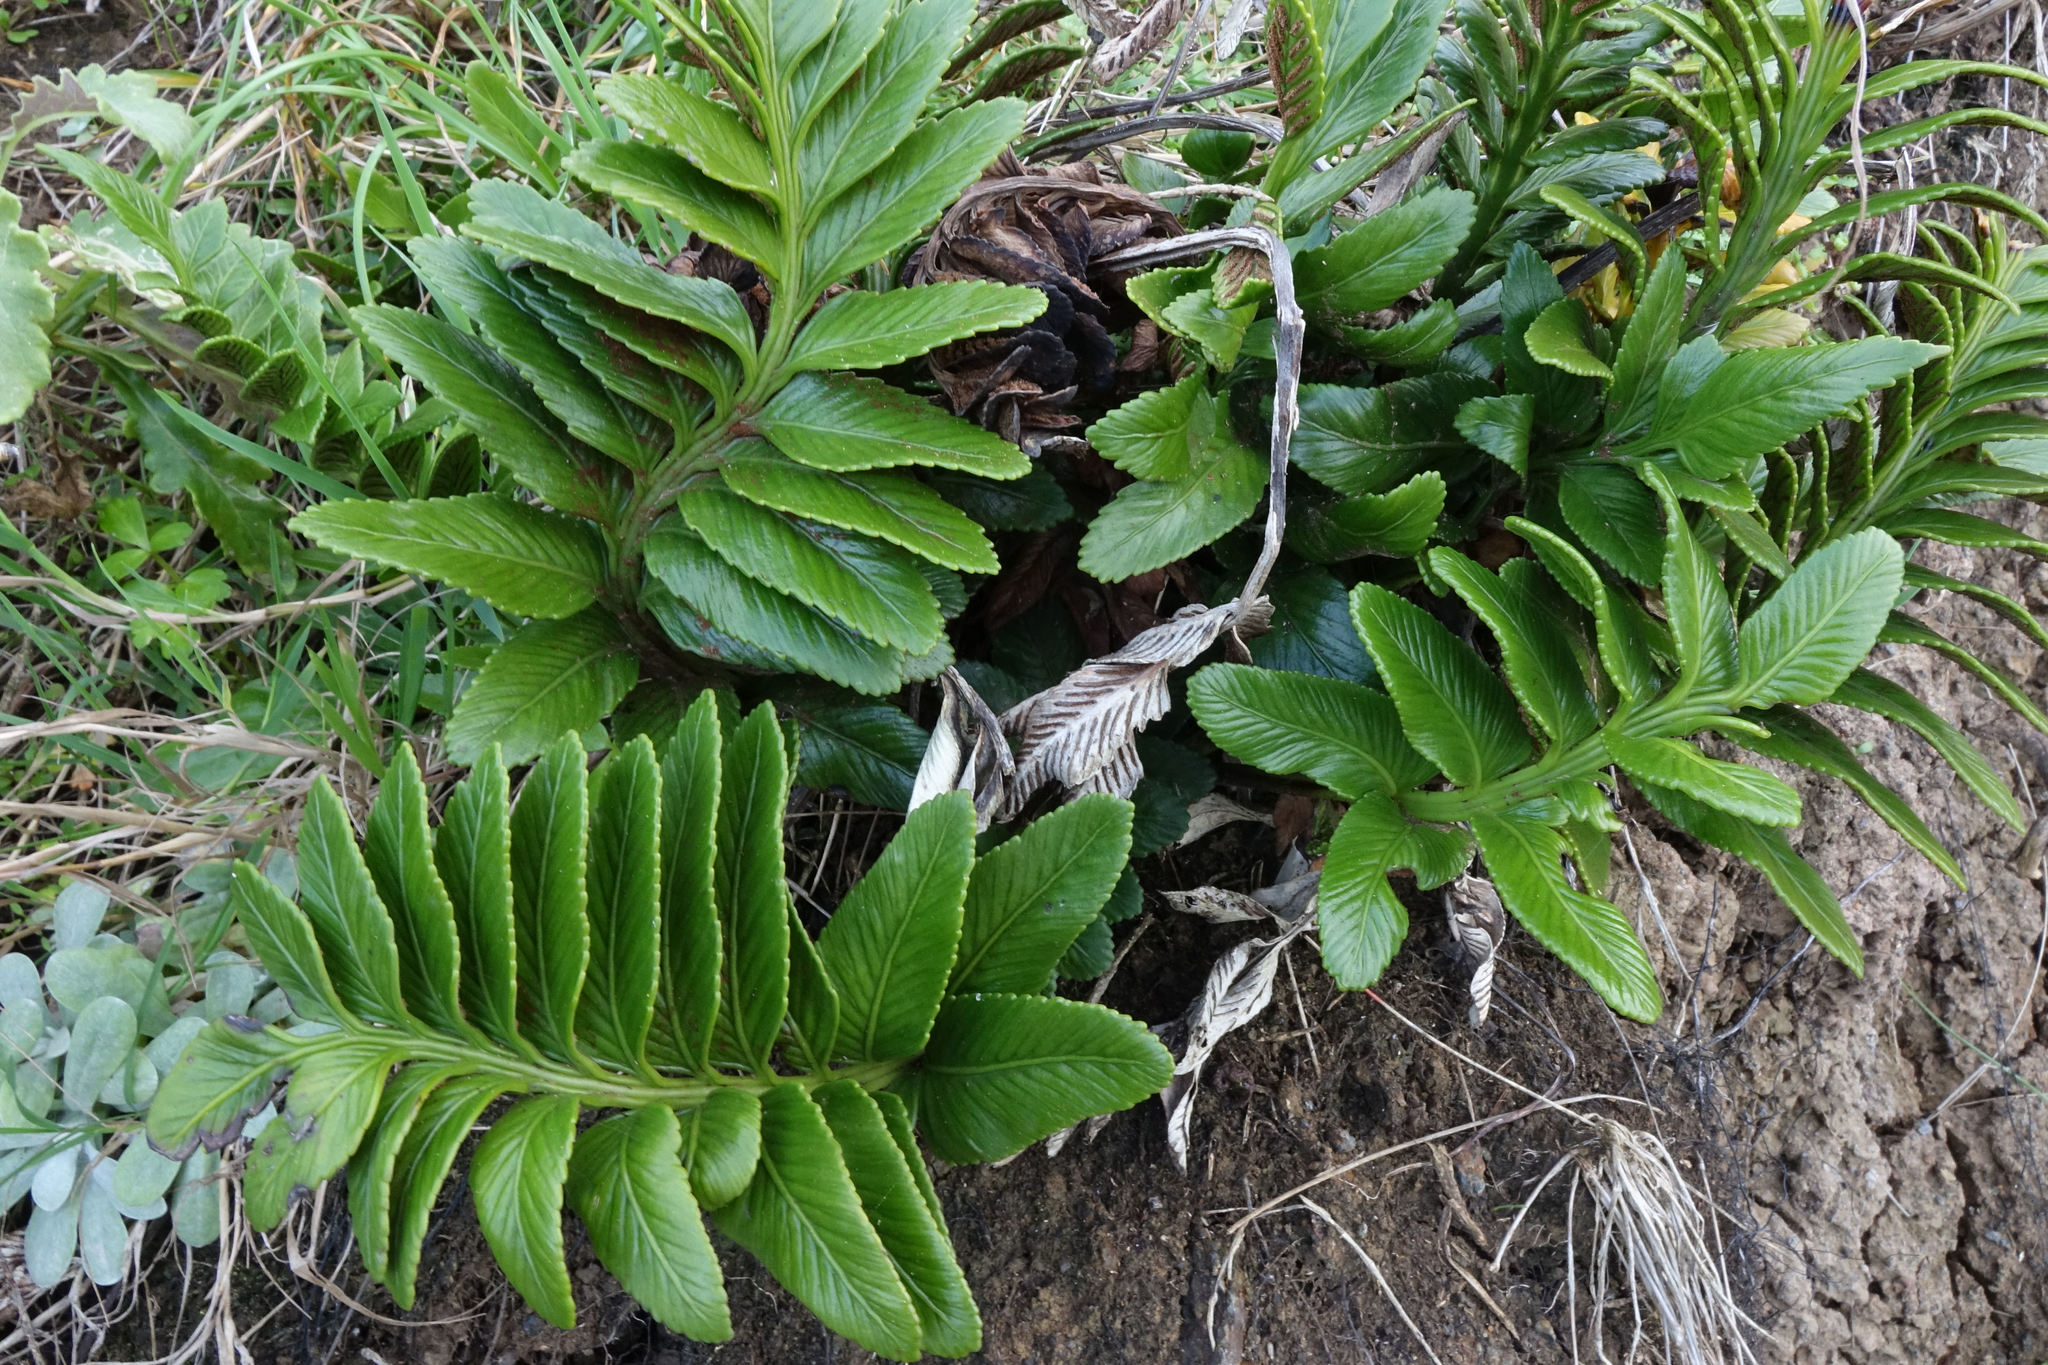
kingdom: Plantae
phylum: Tracheophyta
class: Polypodiopsida
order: Polypodiales
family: Aspleniaceae
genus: Asplenium
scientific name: Asplenium obtusatum
